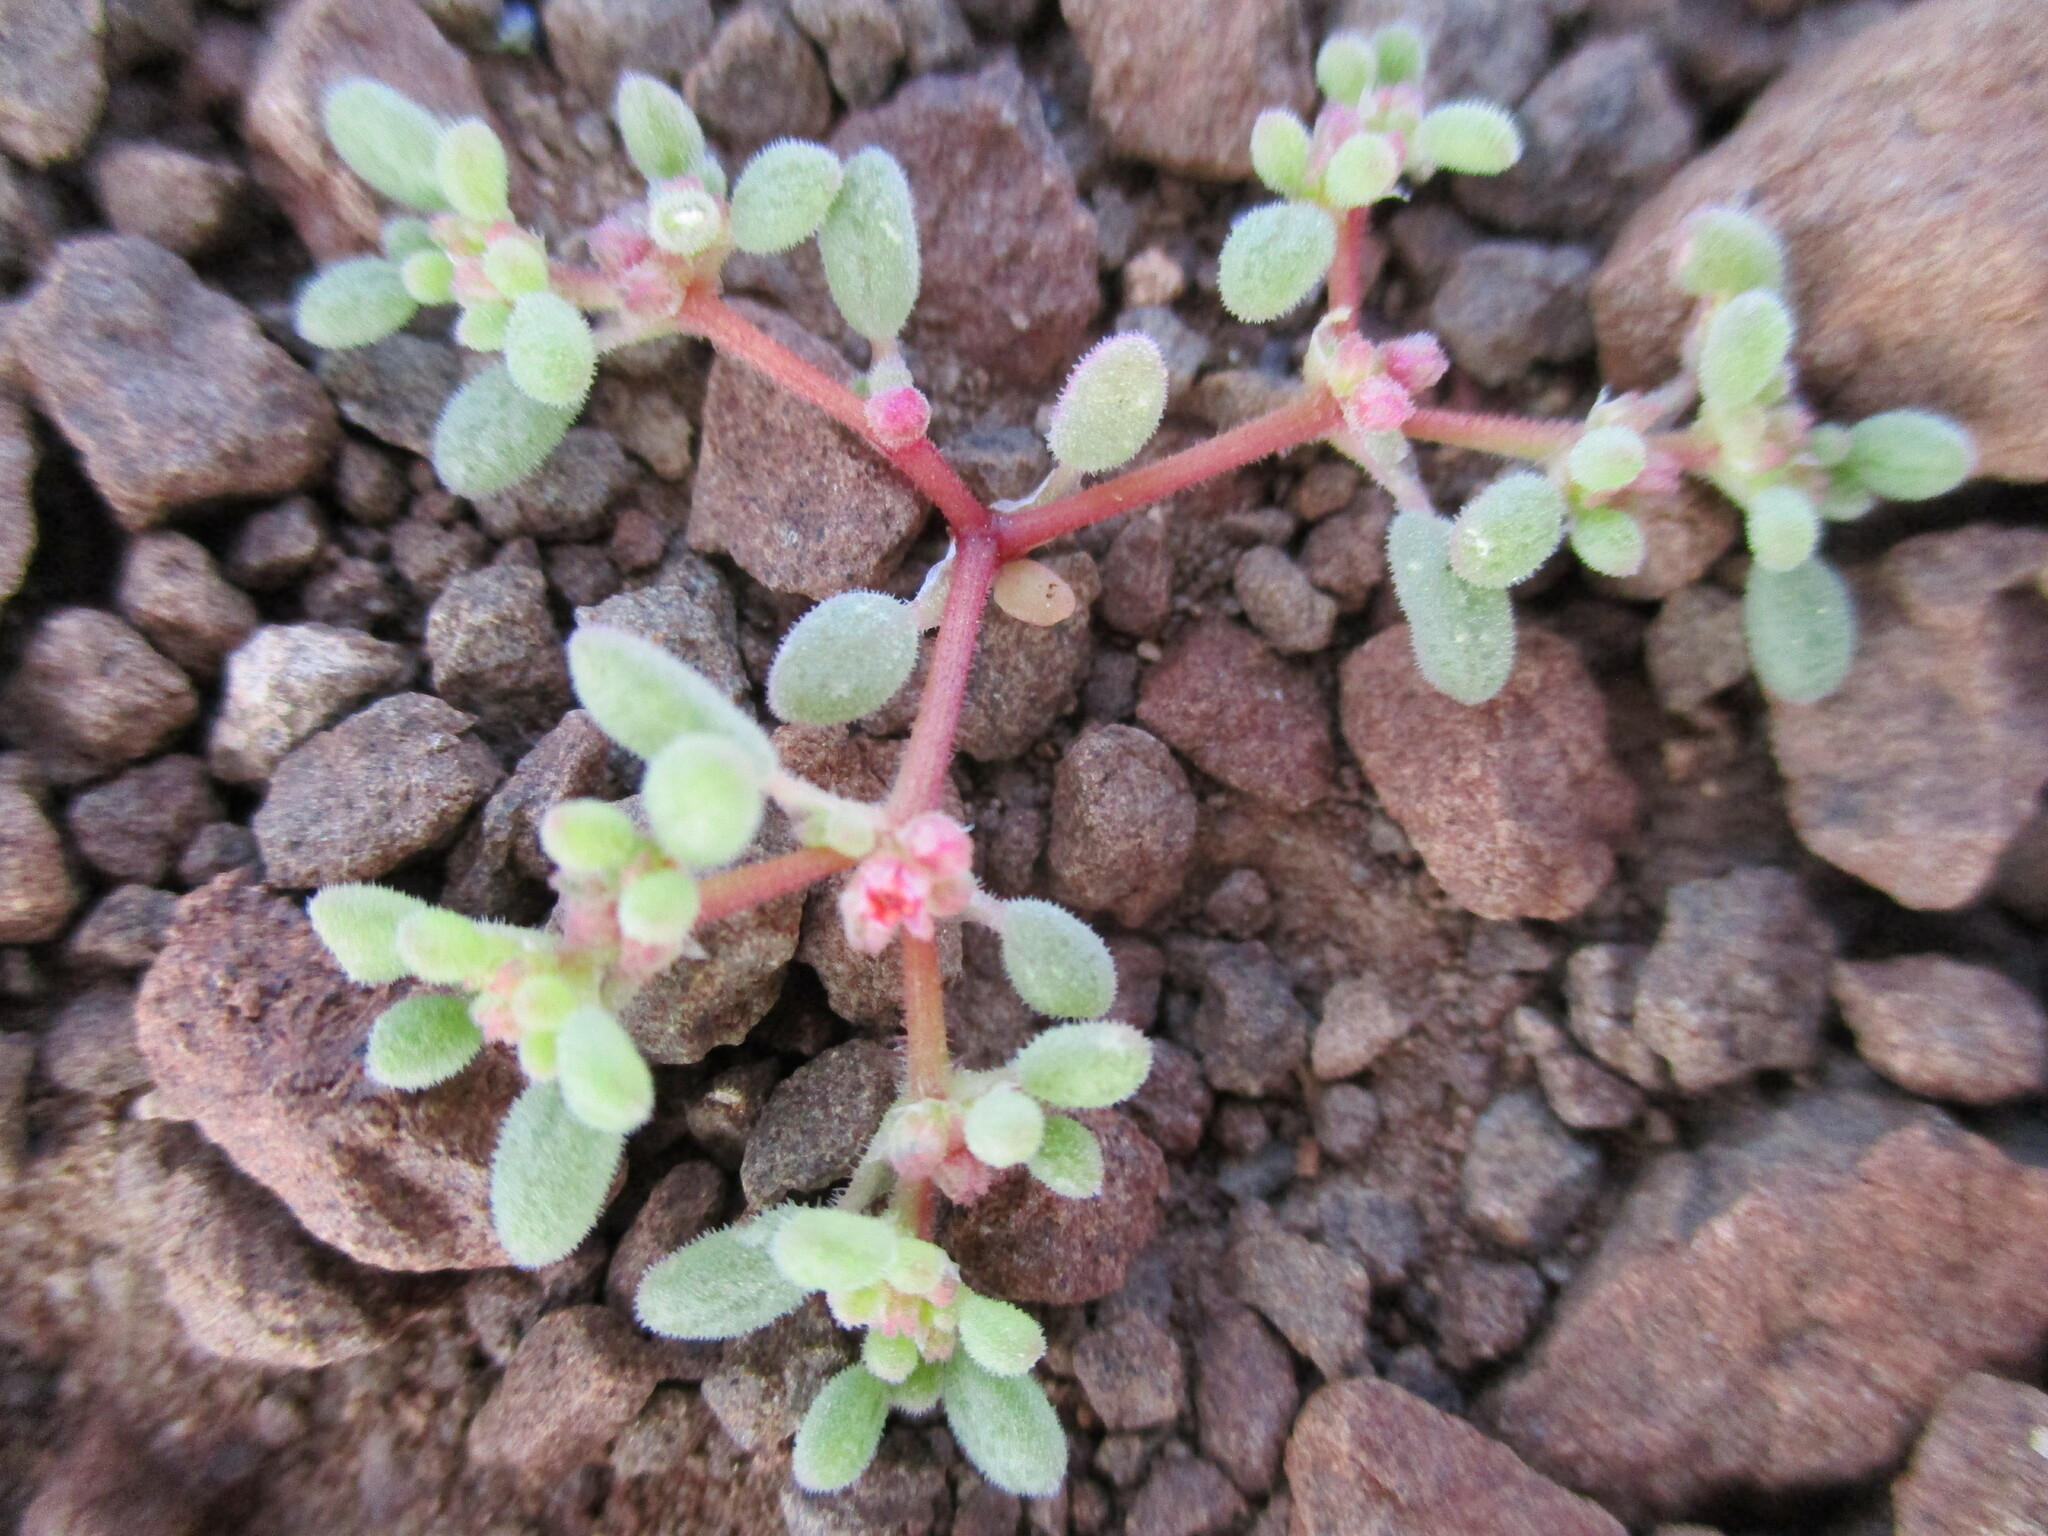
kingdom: Plantae
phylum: Tracheophyta
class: Magnoliopsida
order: Caryophyllales
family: Aizoaceae
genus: Aizoon
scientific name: Aizoon papulosum
